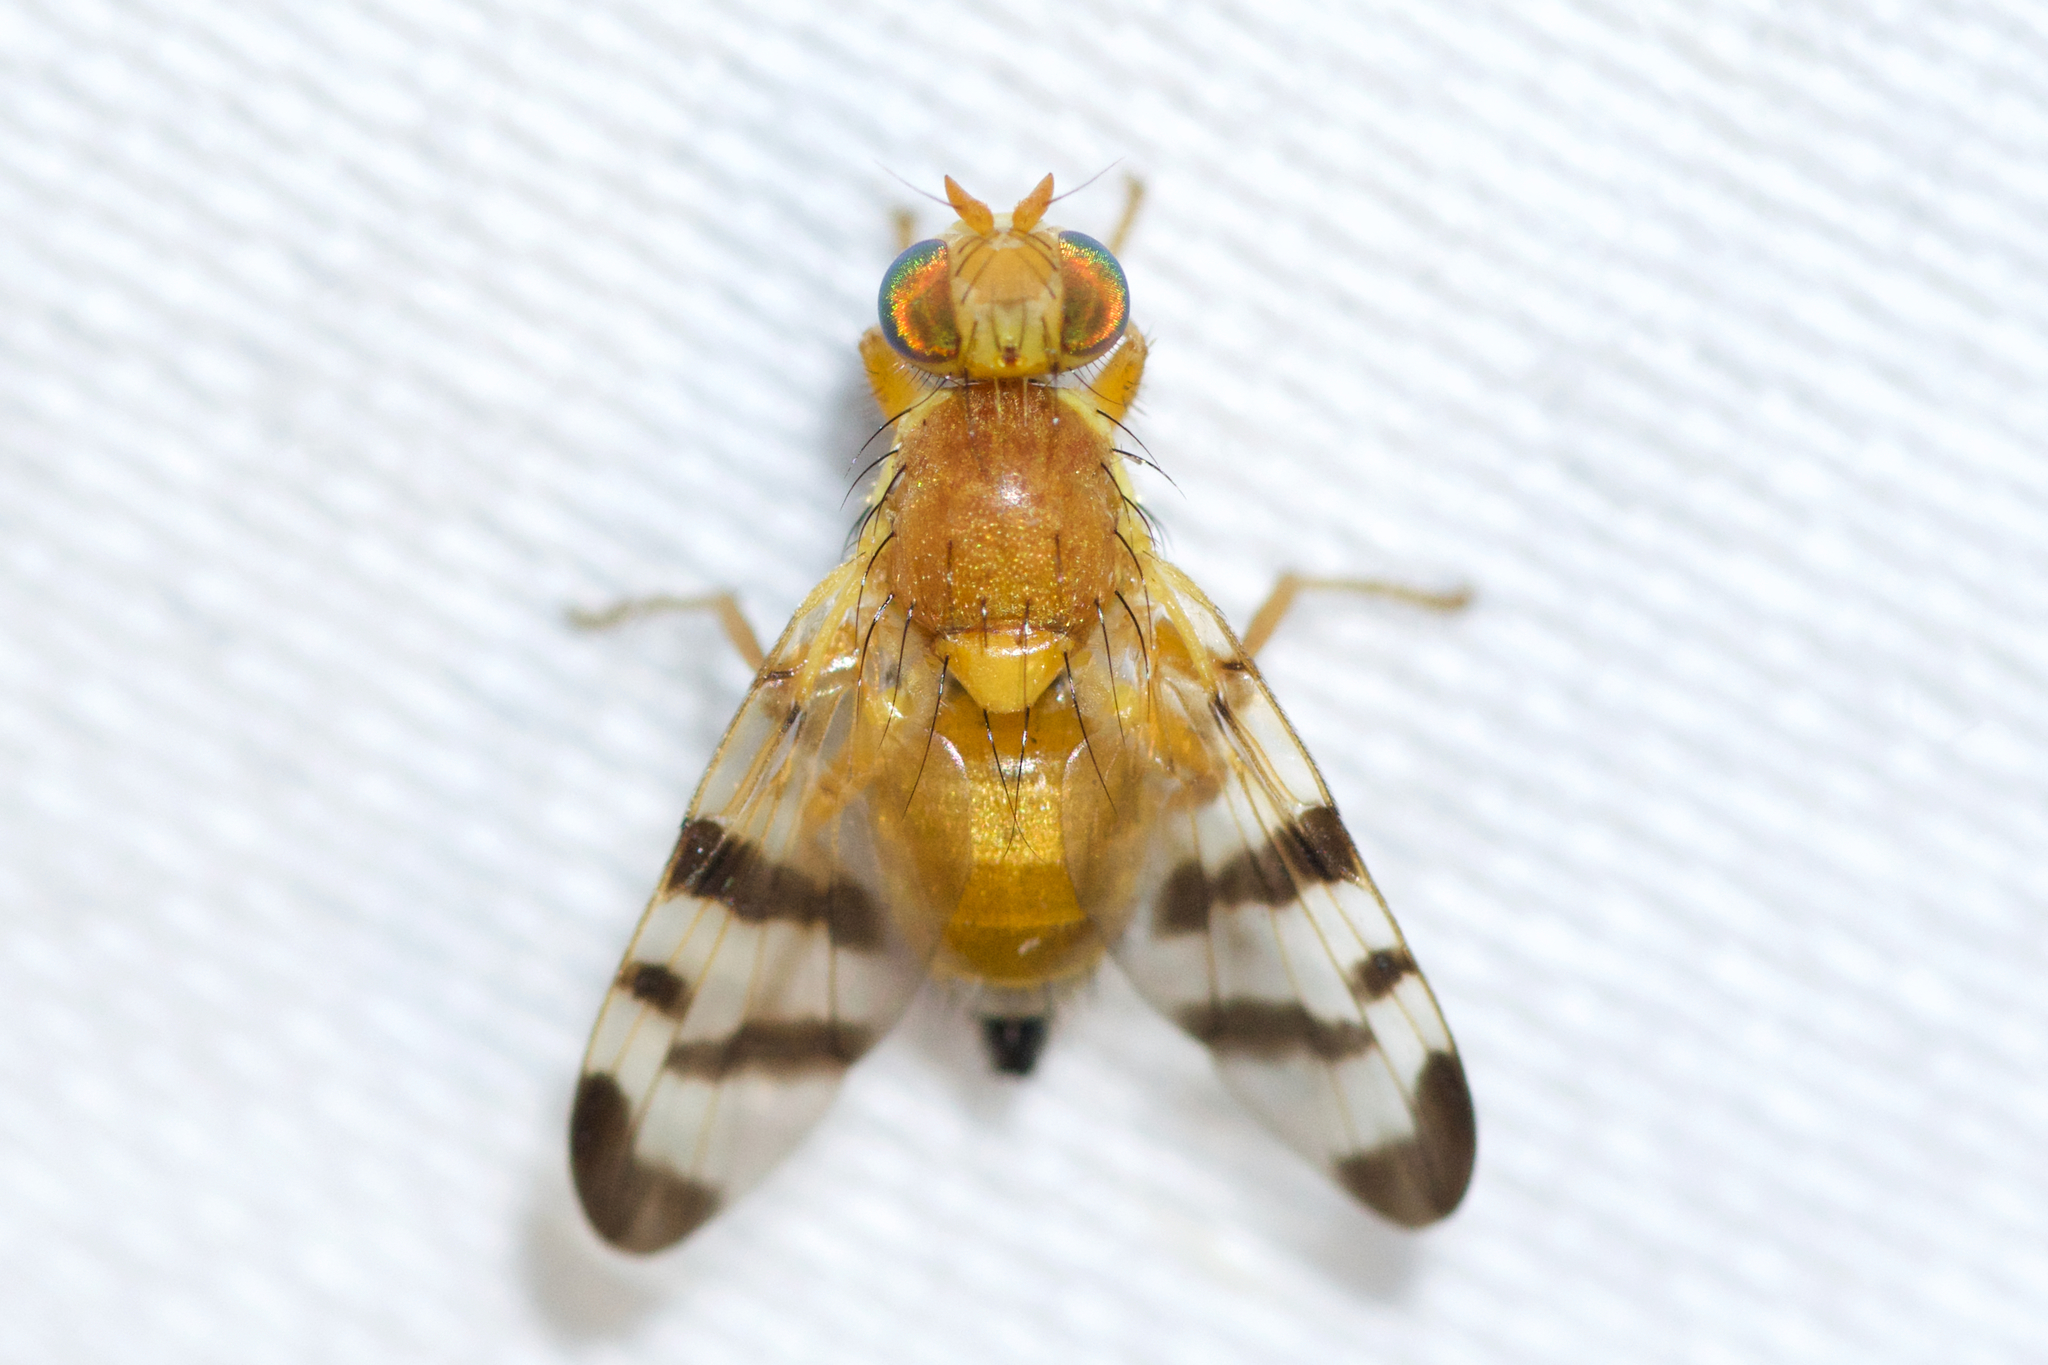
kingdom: Animalia
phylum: Arthropoda
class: Insecta
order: Diptera
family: Tephritidae
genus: Rhagoletis
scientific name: Rhagoletis meigenii
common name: Fruit fly
